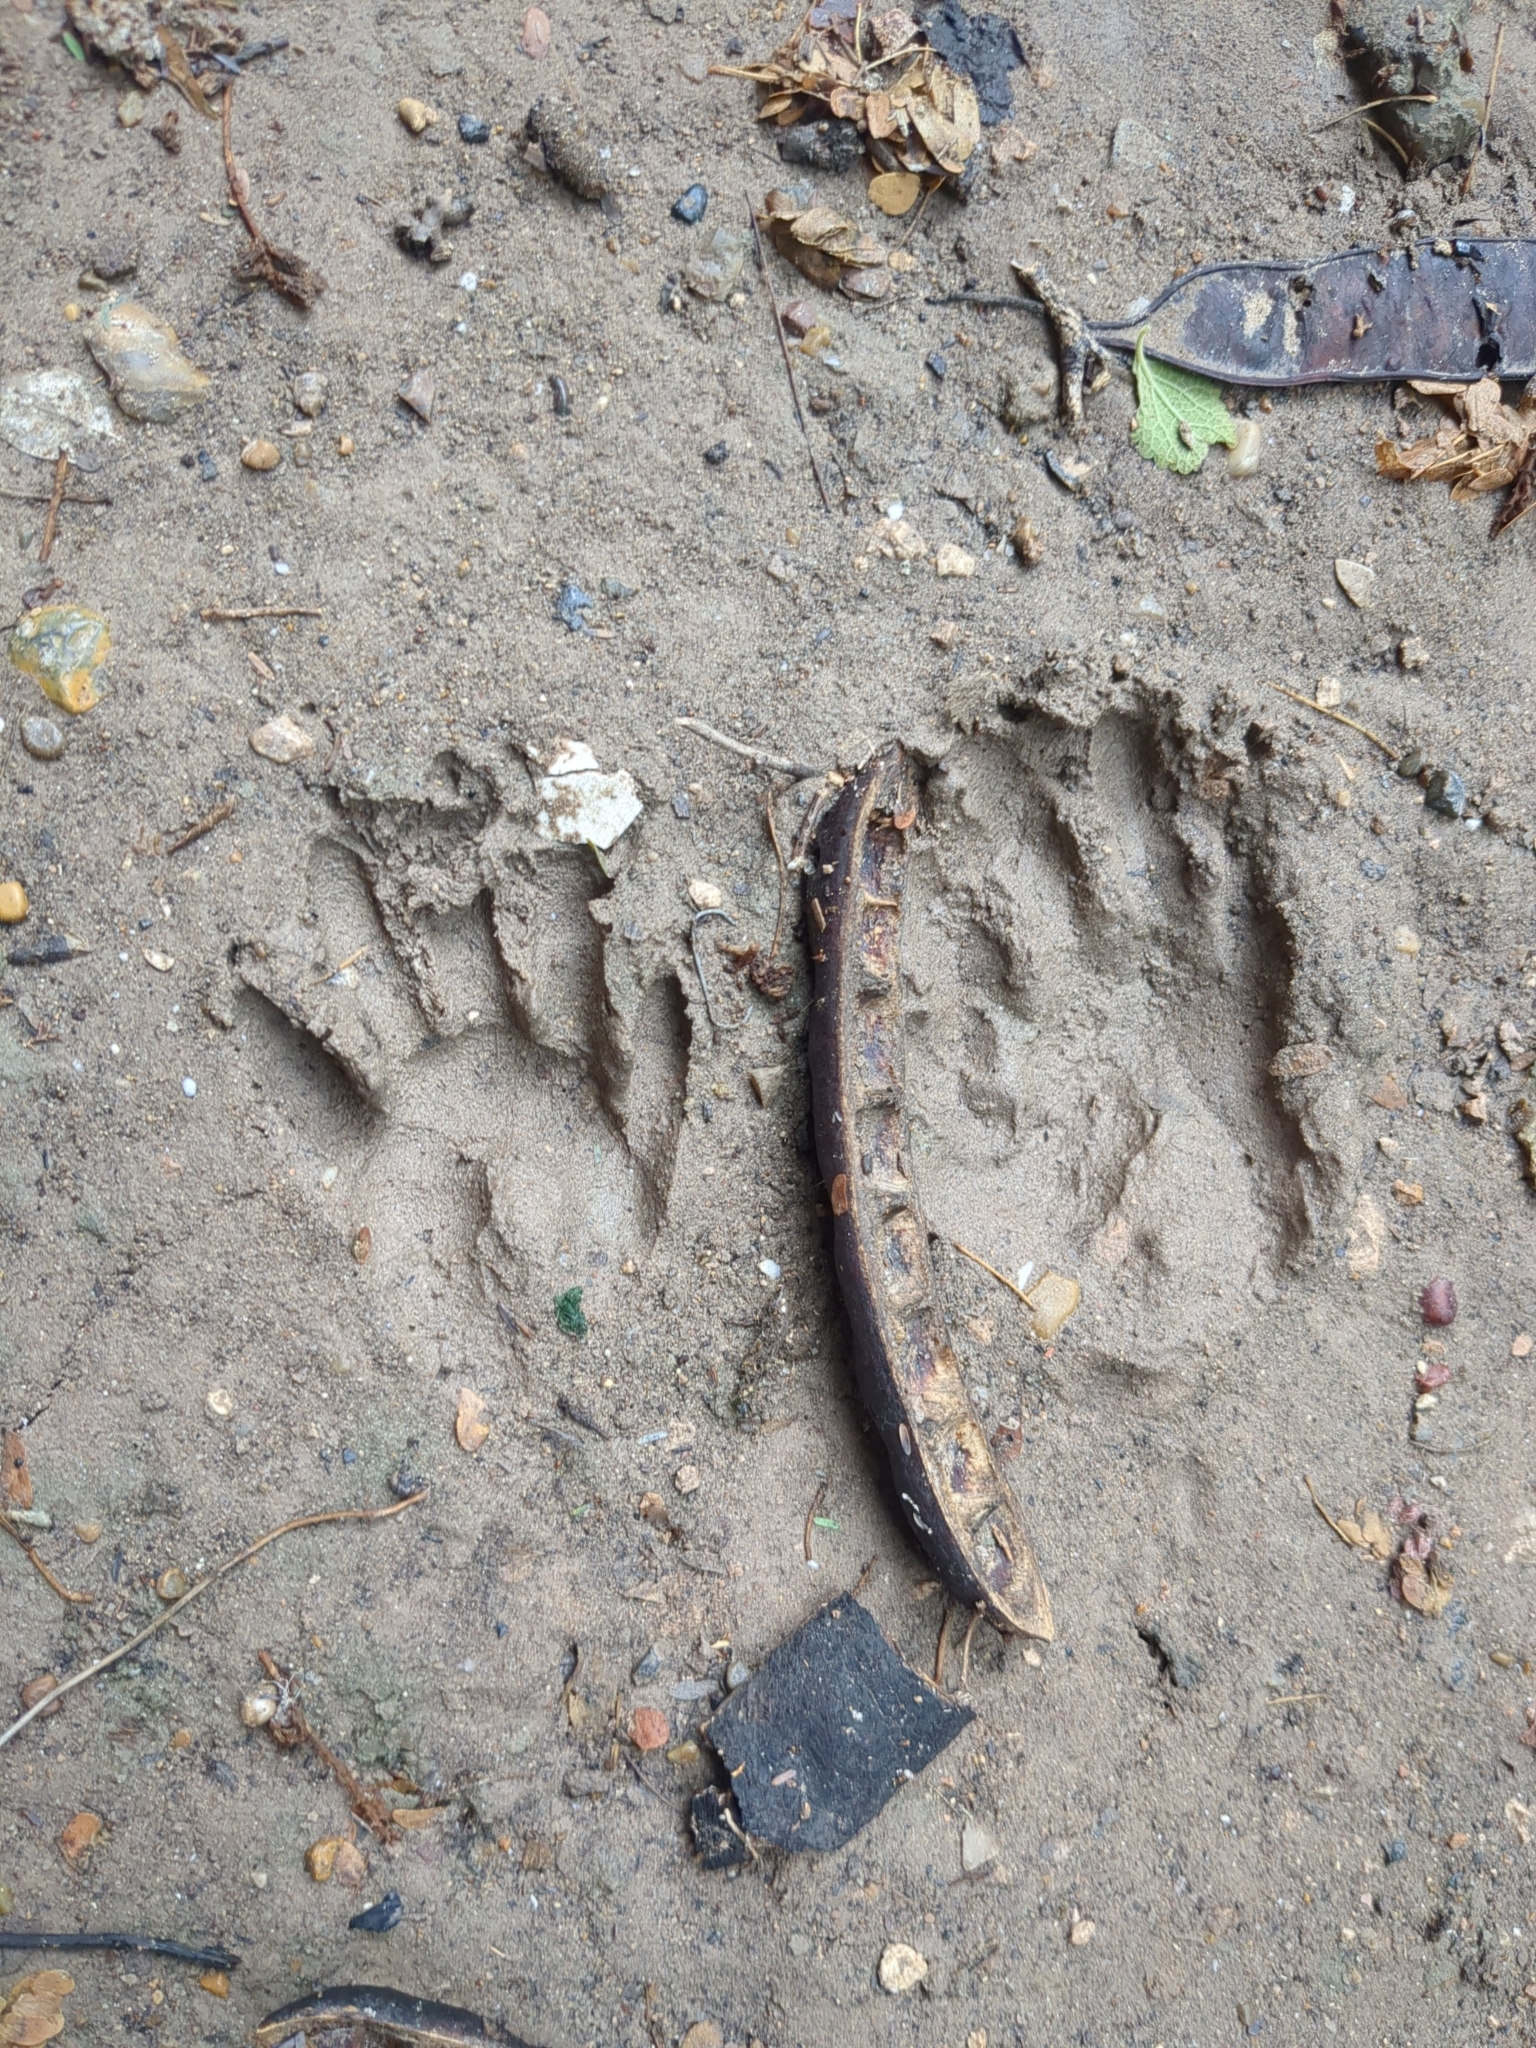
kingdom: Animalia
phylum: Chordata
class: Mammalia
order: Carnivora
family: Procyonidae
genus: Procyon
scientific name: Procyon lotor
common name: Raccoon
